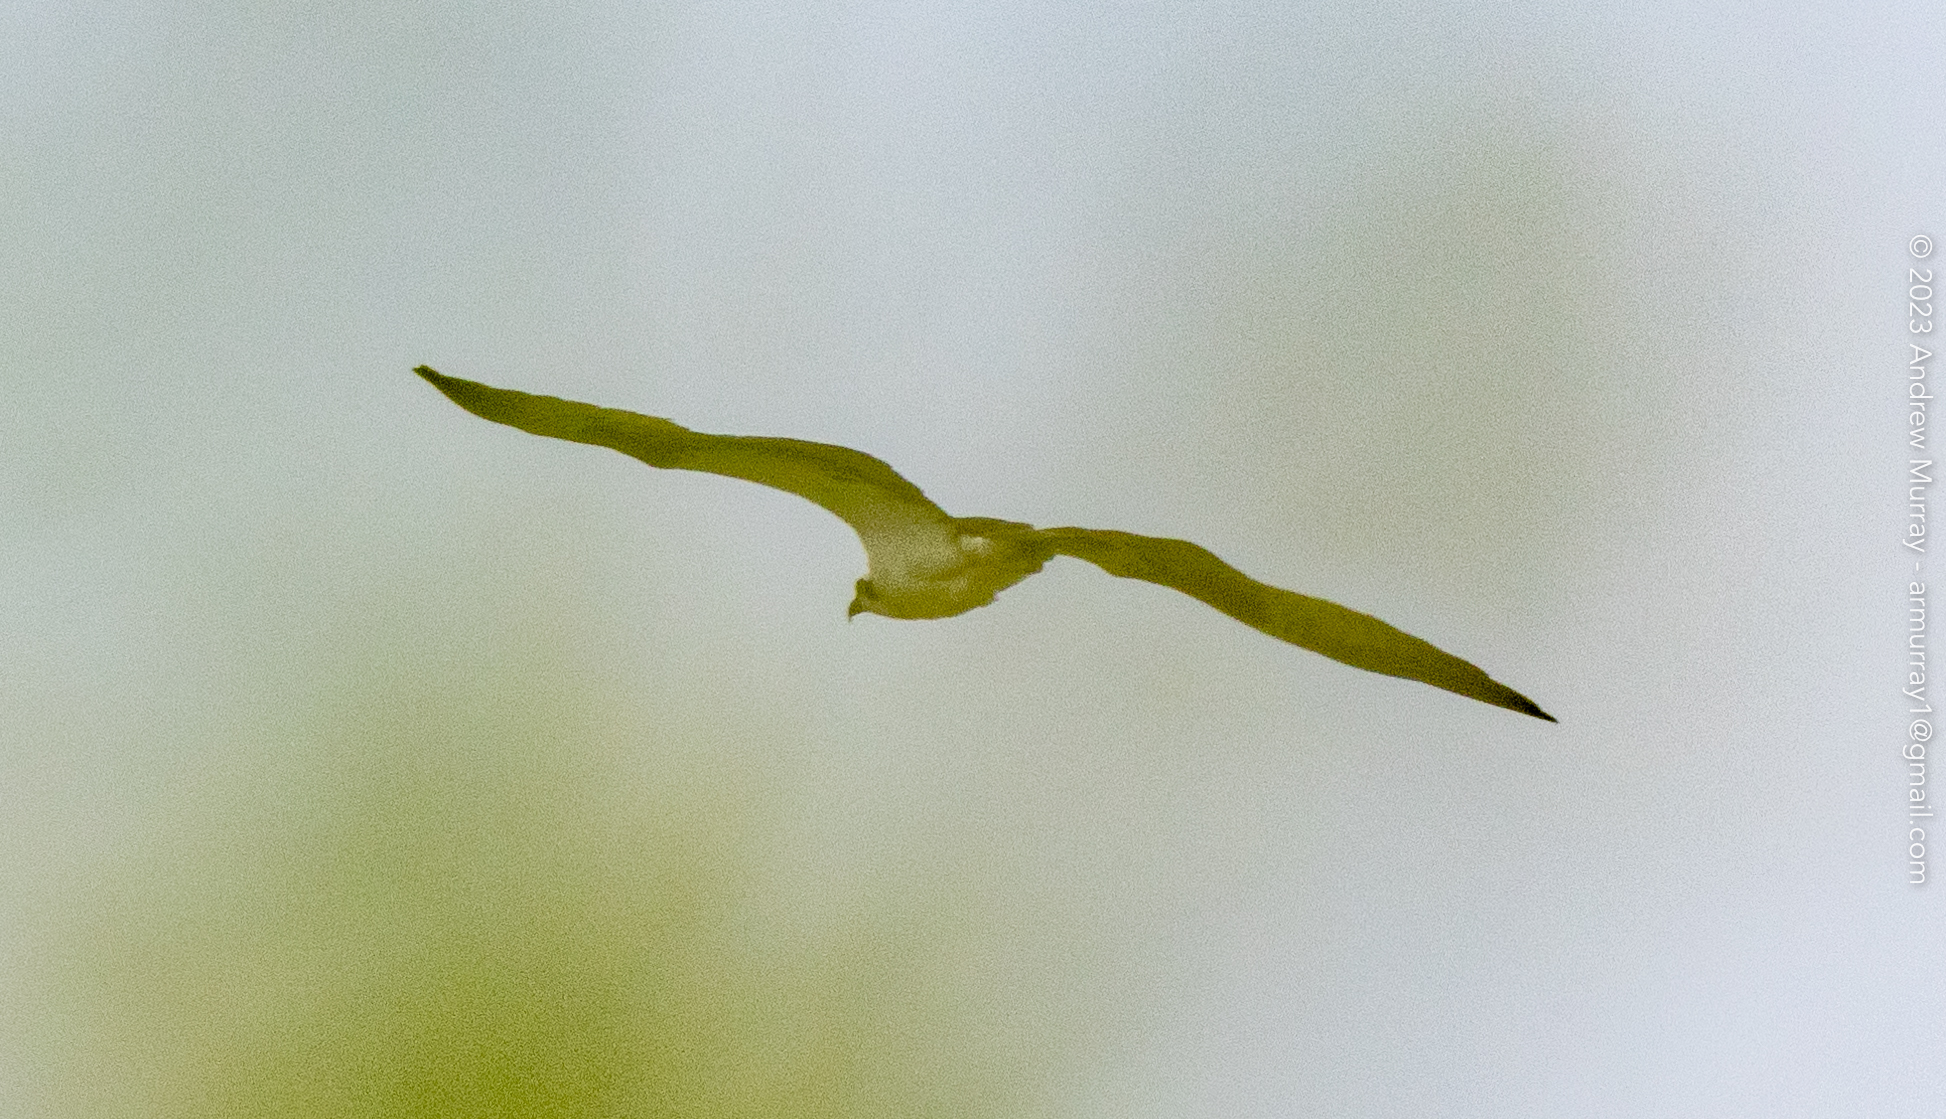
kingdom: Animalia
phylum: Chordata
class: Aves
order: Accipitriformes
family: Pandionidae
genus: Pandion
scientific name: Pandion haliaetus
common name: Osprey
